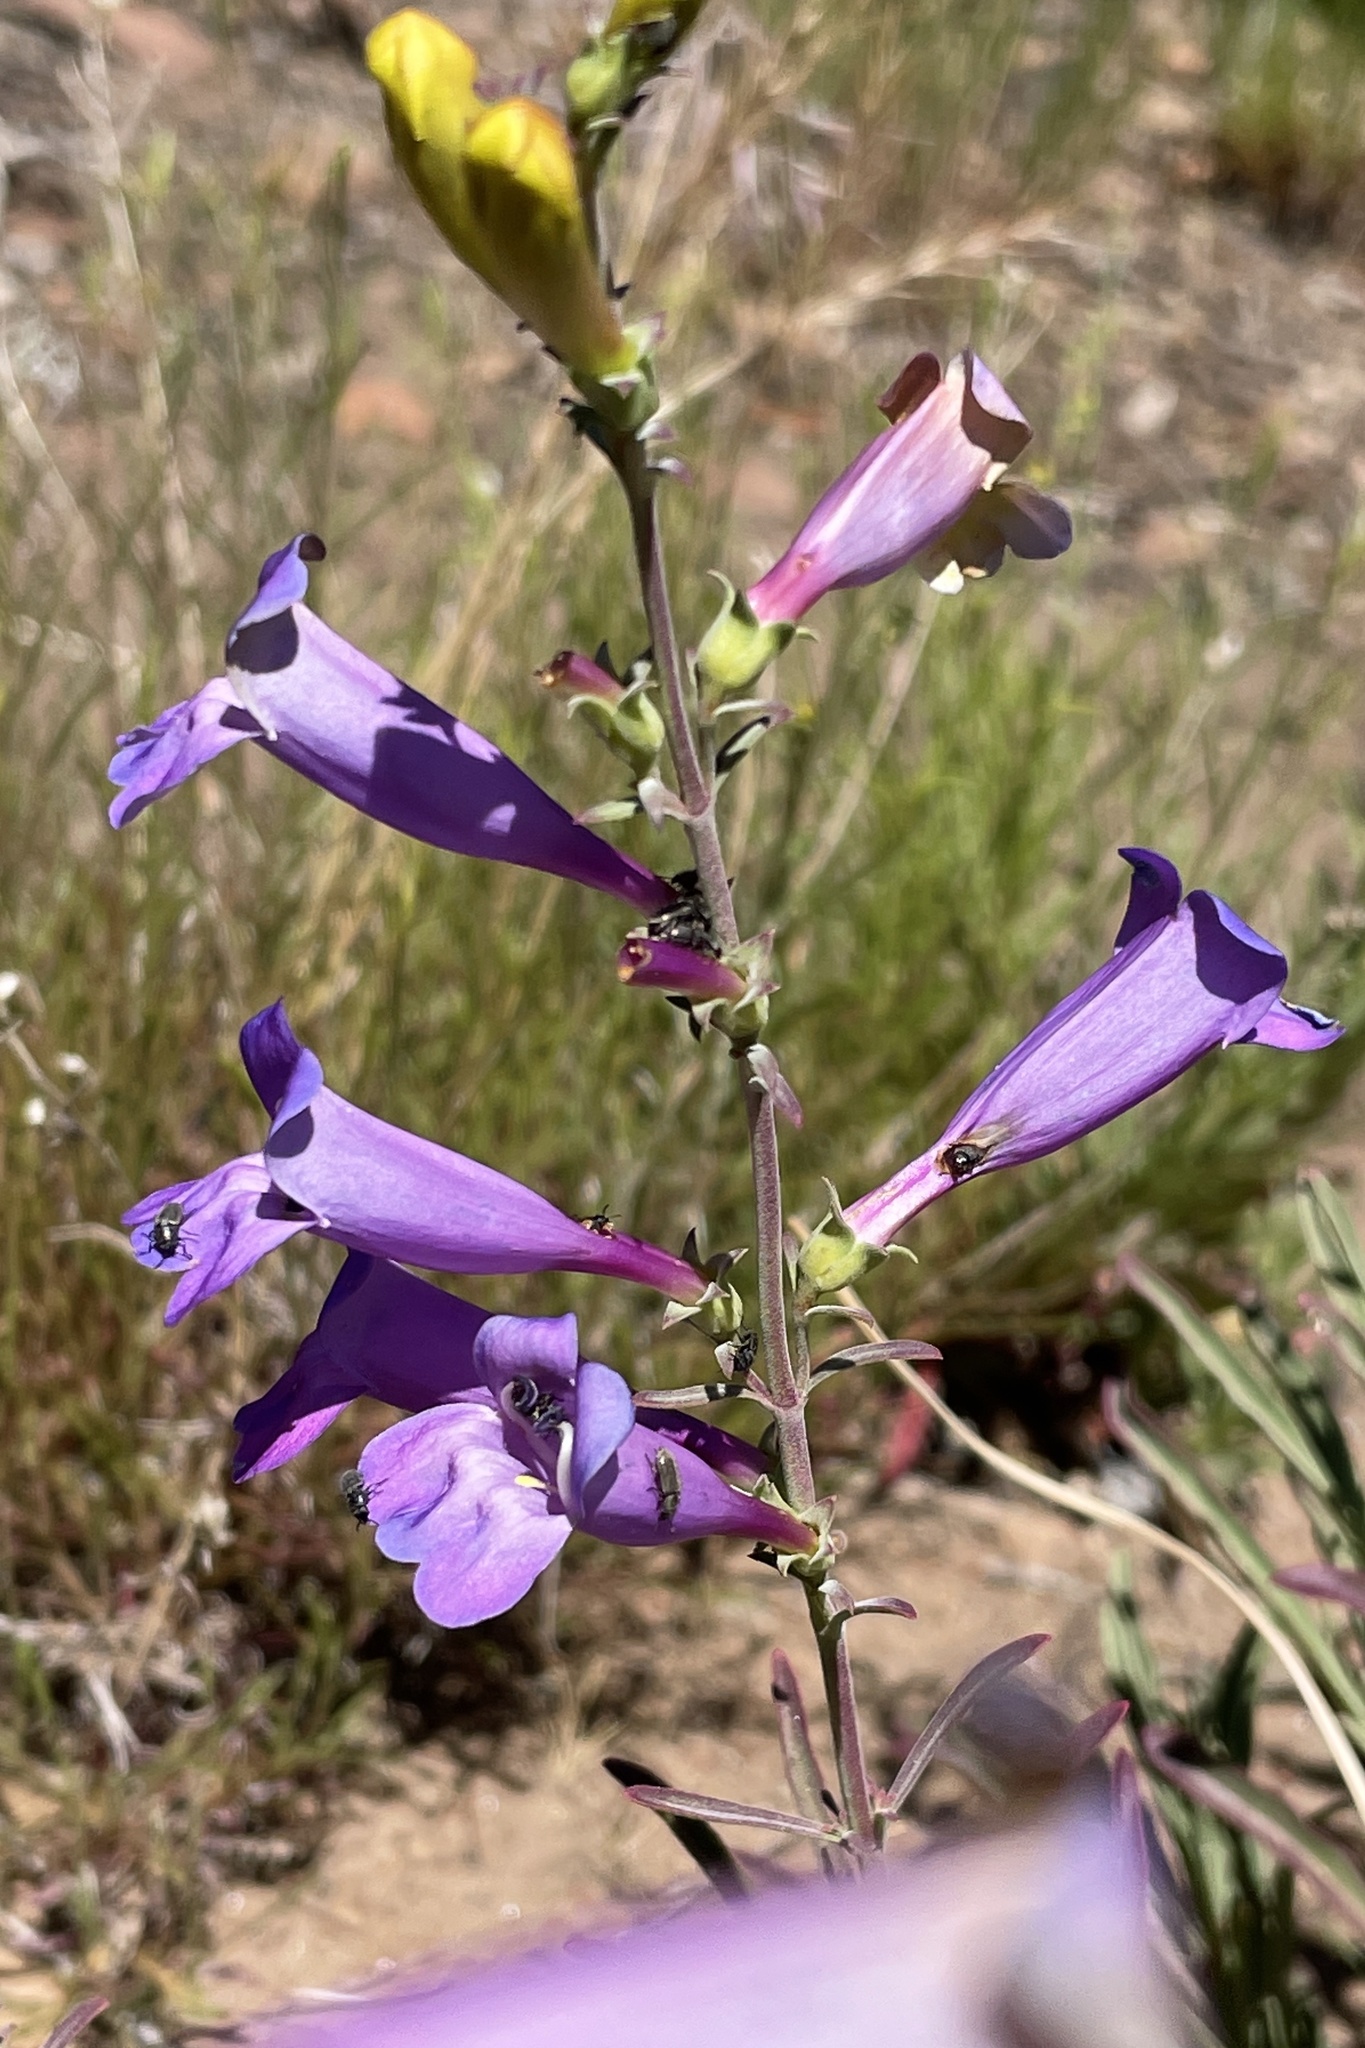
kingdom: Plantae
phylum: Tracheophyta
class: Magnoliopsida
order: Lamiales
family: Plantaginaceae
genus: Penstemon
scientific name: Penstemon heterophyllus
